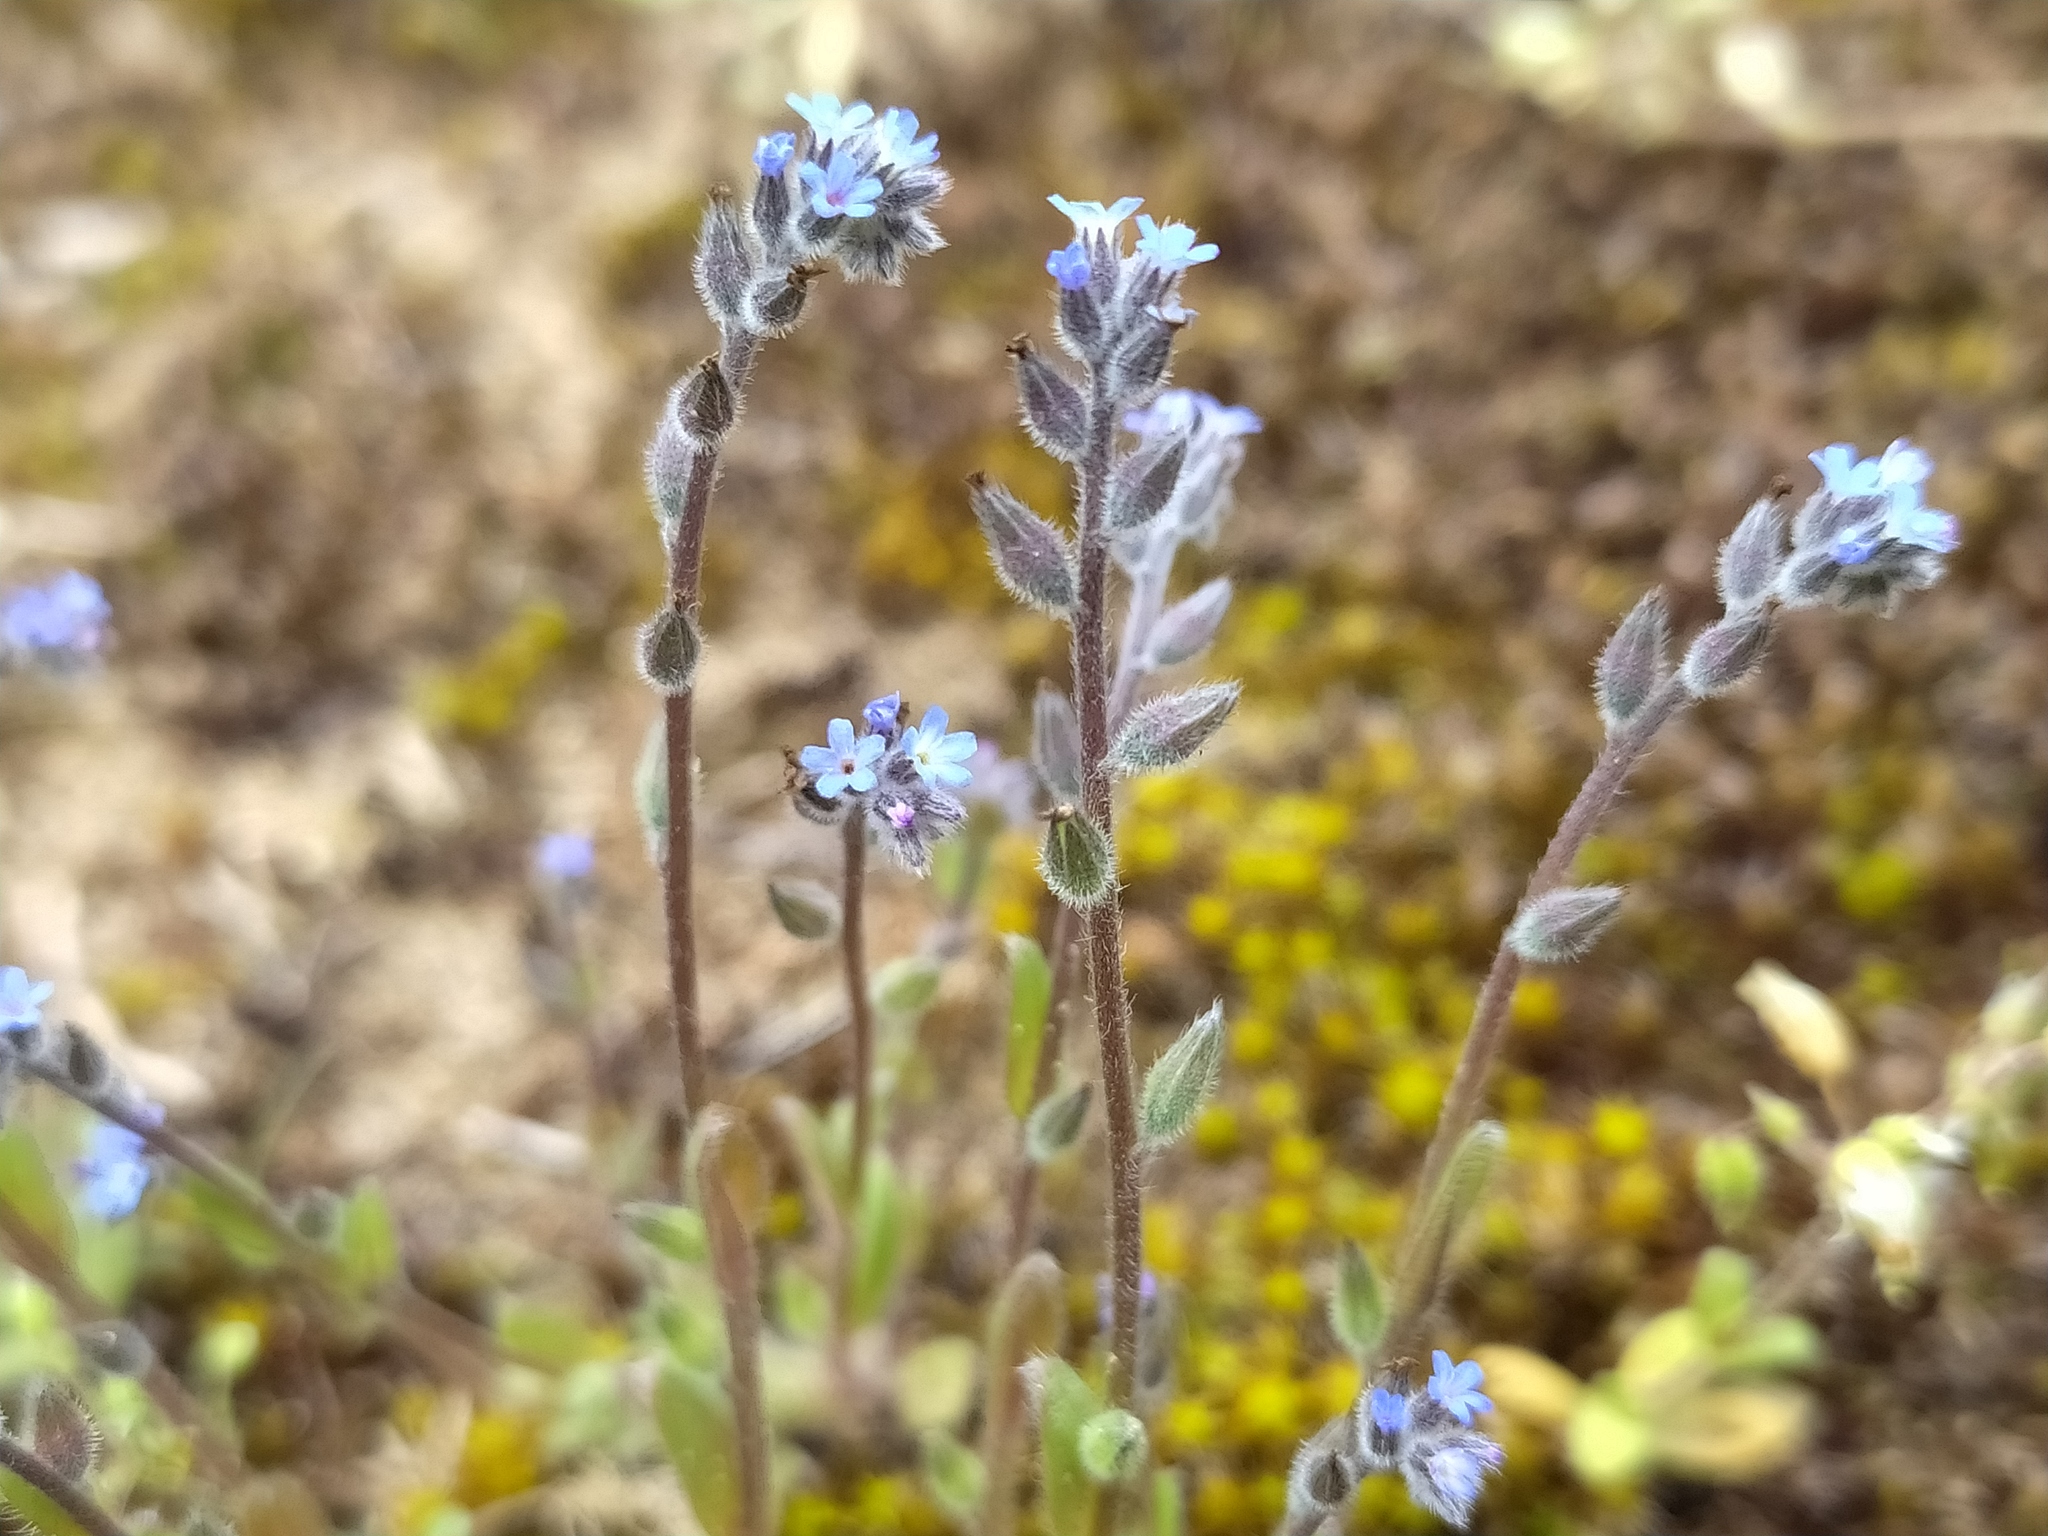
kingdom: Plantae
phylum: Tracheophyta
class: Magnoliopsida
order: Boraginales
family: Boraginaceae
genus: Myosotis
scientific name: Myosotis stricta
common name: Strict forget-me-not
